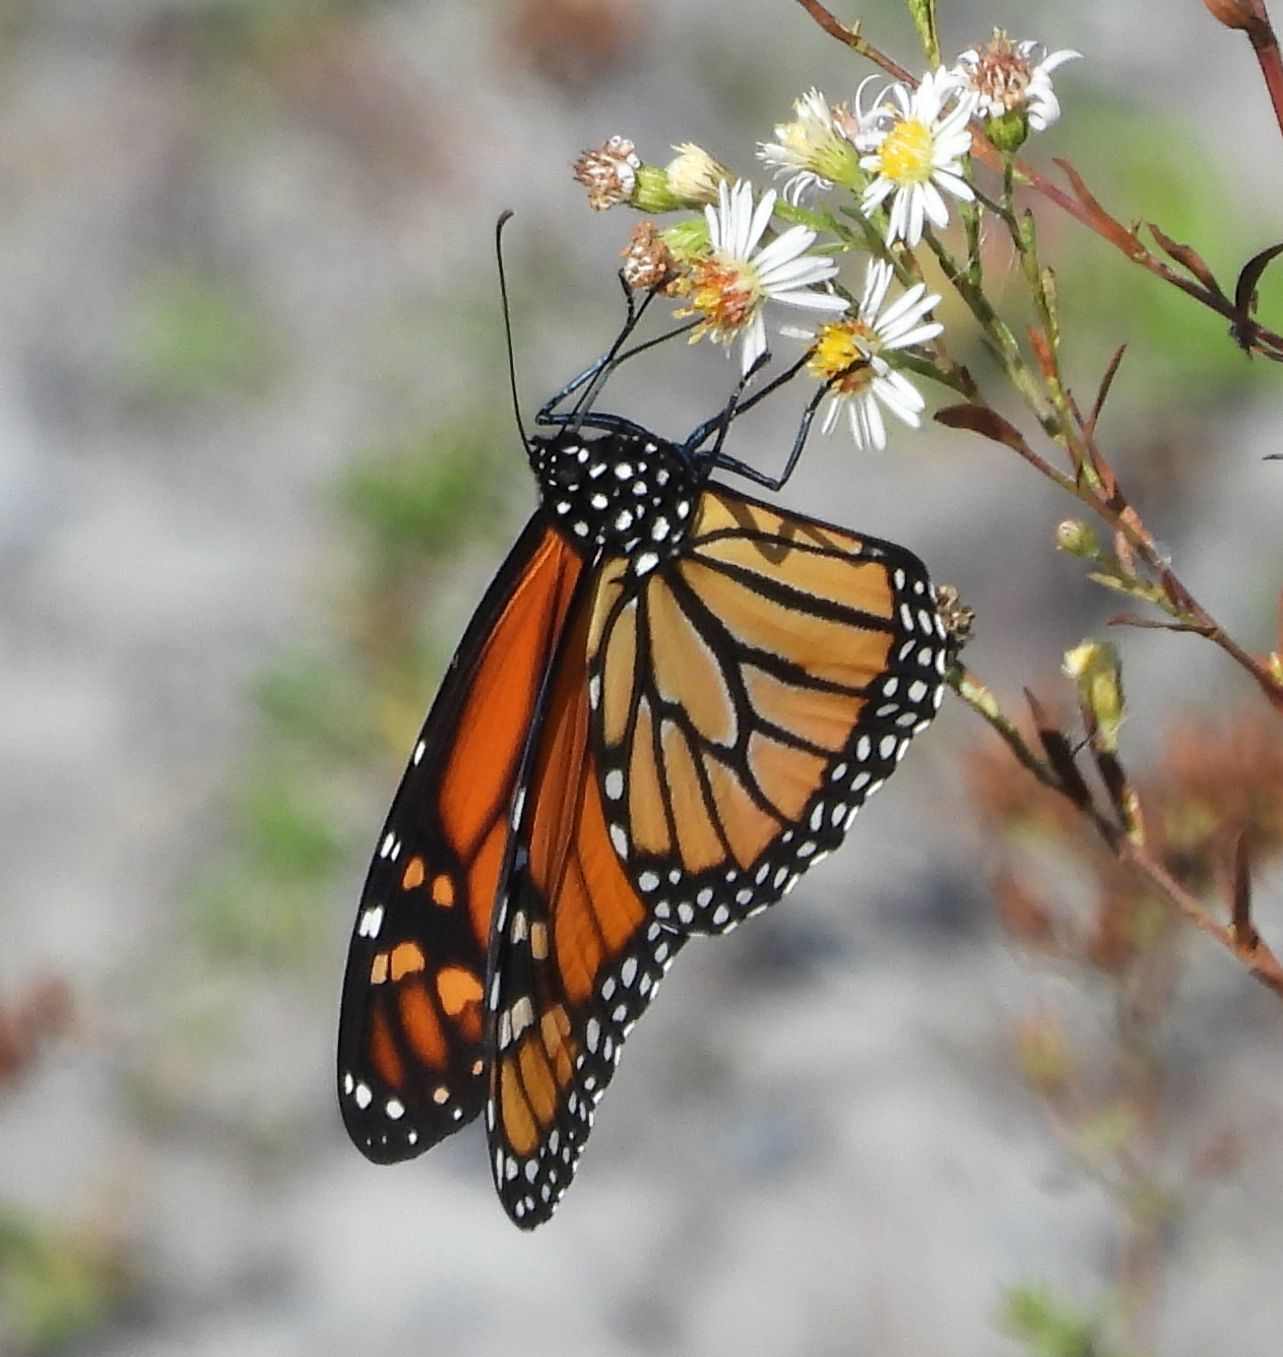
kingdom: Animalia
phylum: Arthropoda
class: Insecta
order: Lepidoptera
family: Nymphalidae
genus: Danaus
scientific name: Danaus plexippus
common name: Monarch
